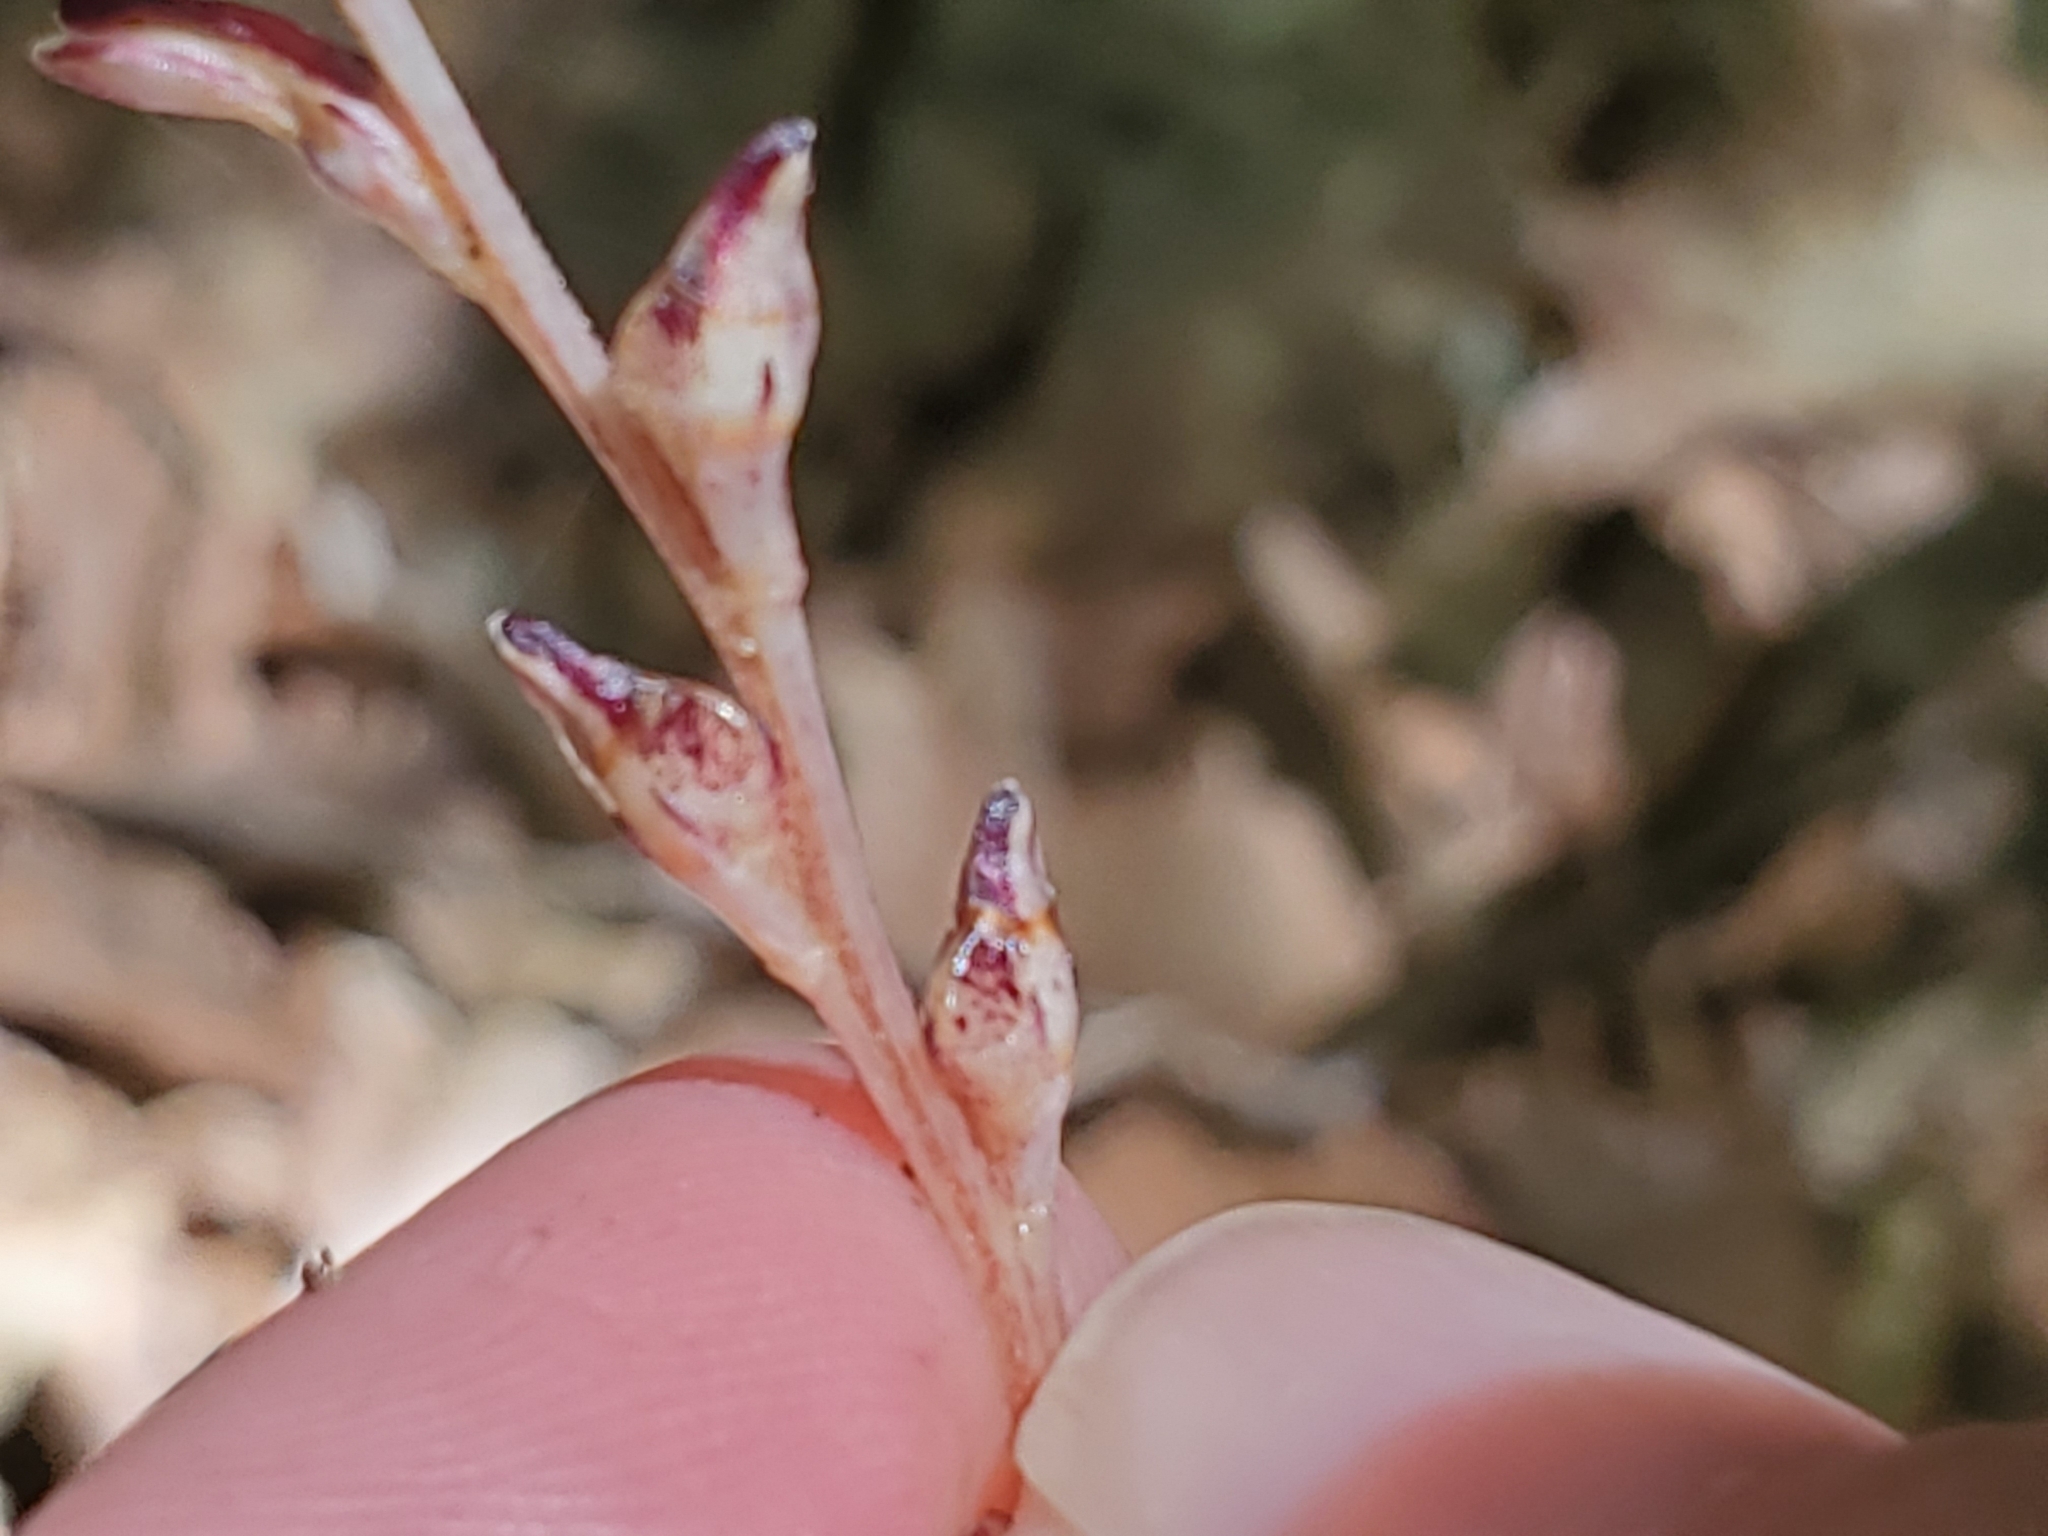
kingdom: Plantae
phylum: Tracheophyta
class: Magnoliopsida
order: Lamiales
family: Orobanchaceae
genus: Epifagus
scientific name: Epifagus virginiana
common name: Beechdrops
